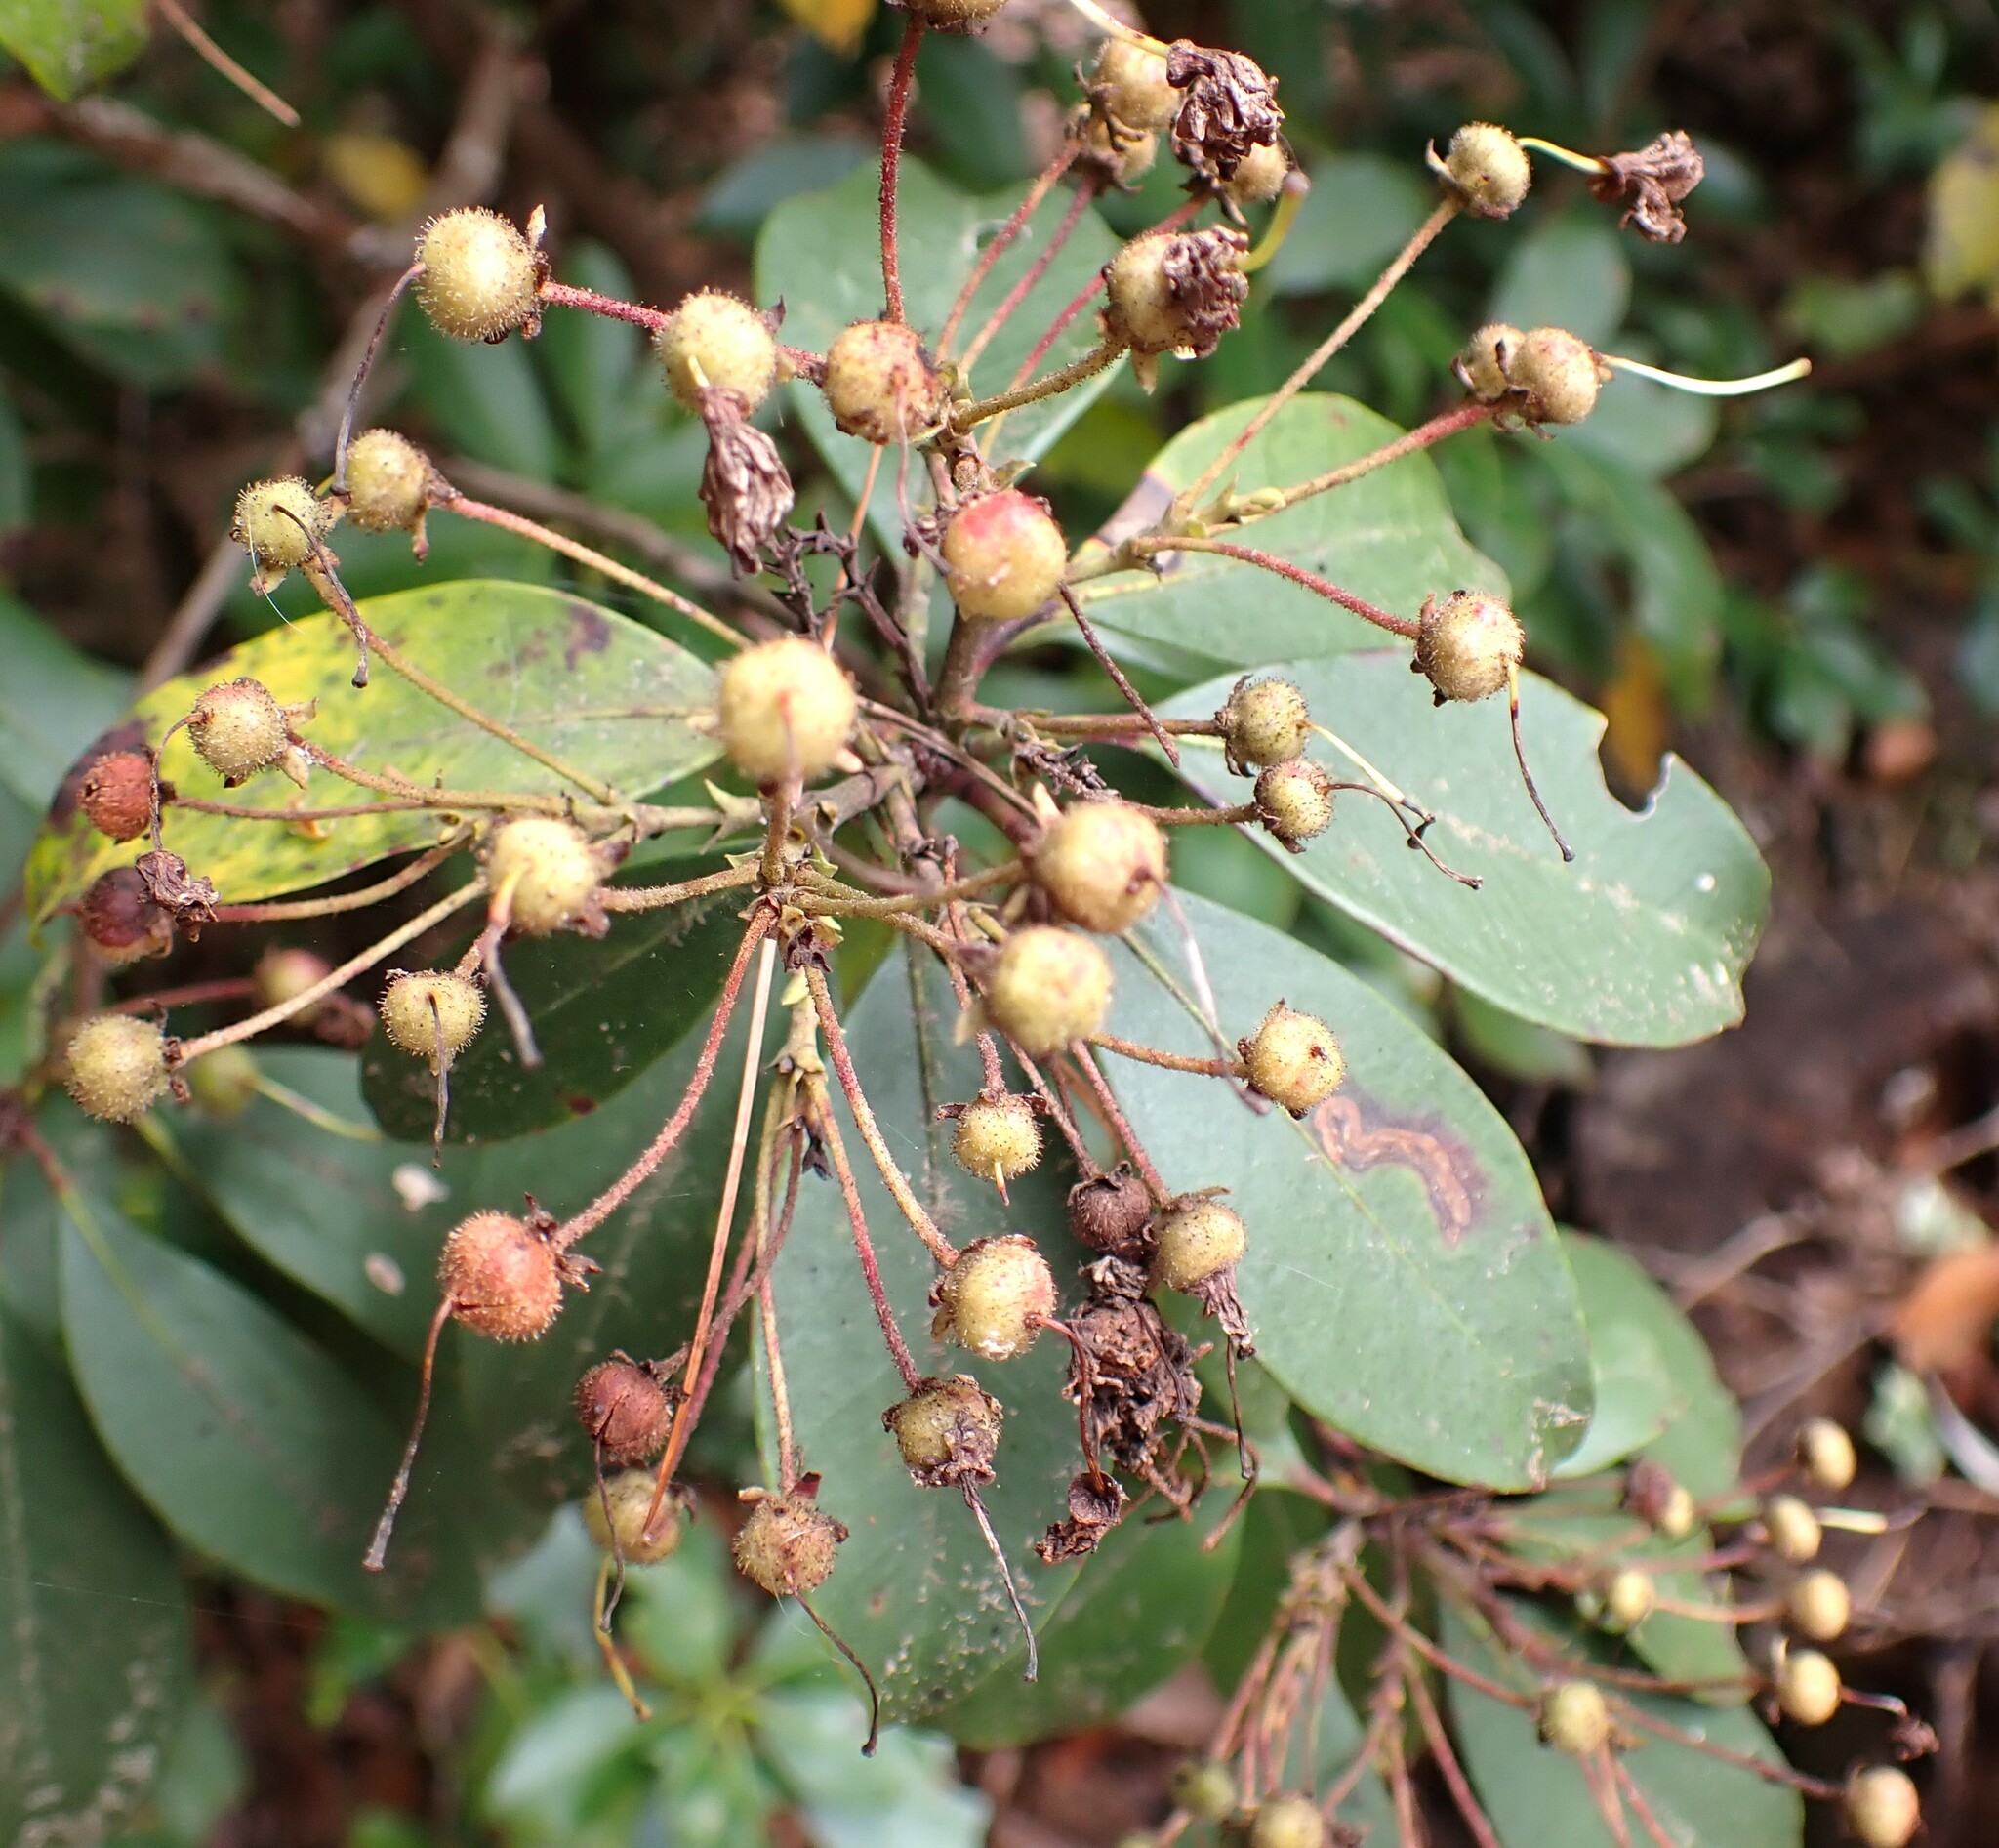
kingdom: Plantae
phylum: Tracheophyta
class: Magnoliopsida
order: Ericales
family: Ericaceae
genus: Kalmia
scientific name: Kalmia latifolia
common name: Mountain-laurel
